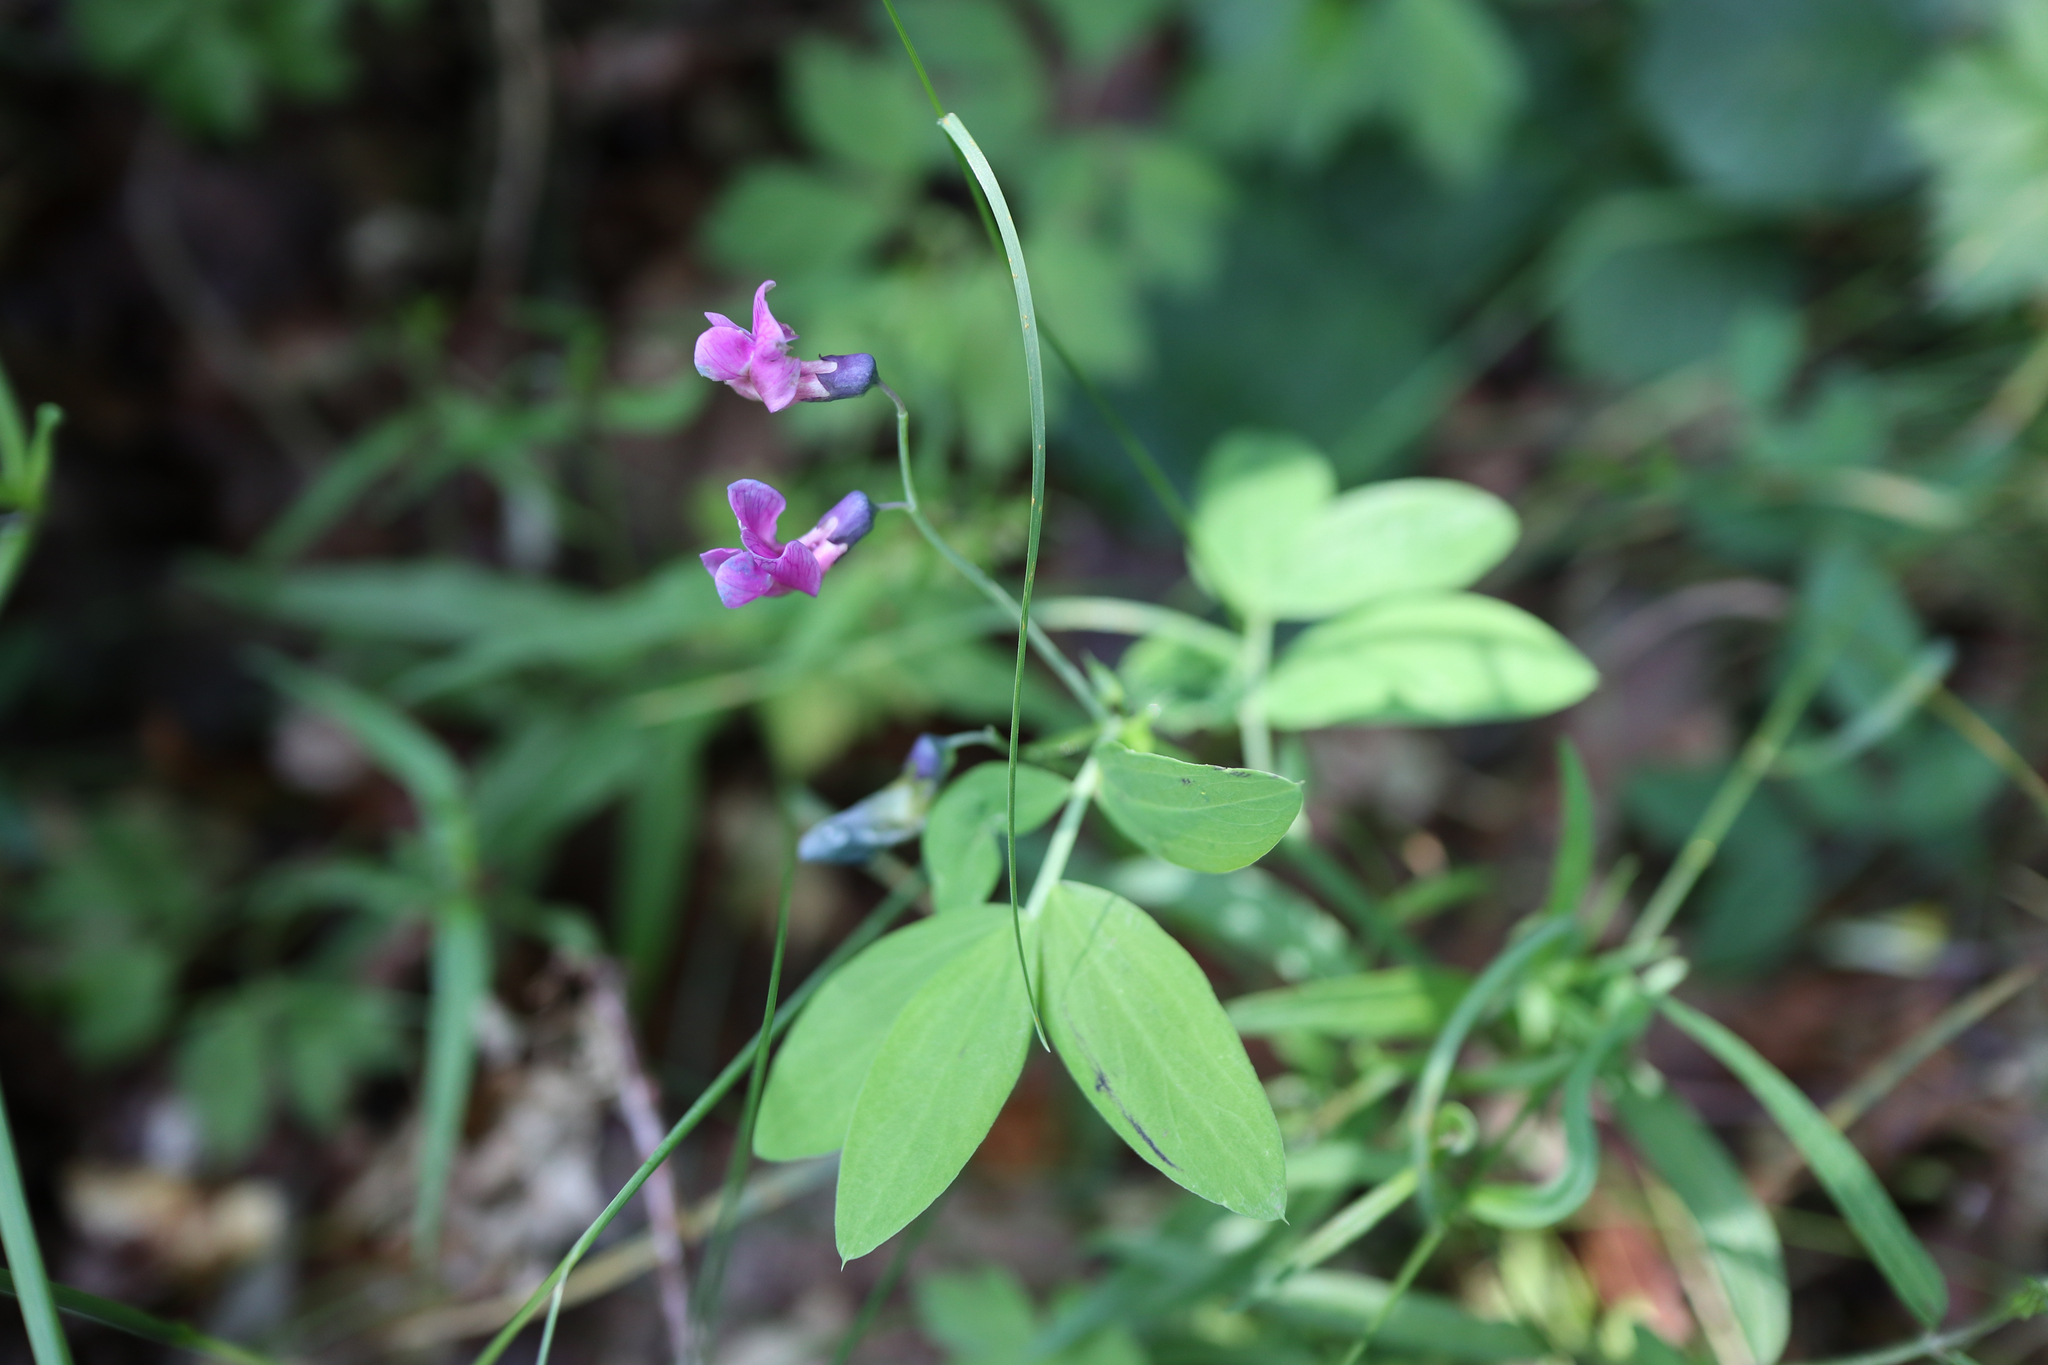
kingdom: Plantae
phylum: Tracheophyta
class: Magnoliopsida
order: Fabales
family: Fabaceae
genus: Lathyrus
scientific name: Lathyrus linifolius
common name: Bitter-vetch
